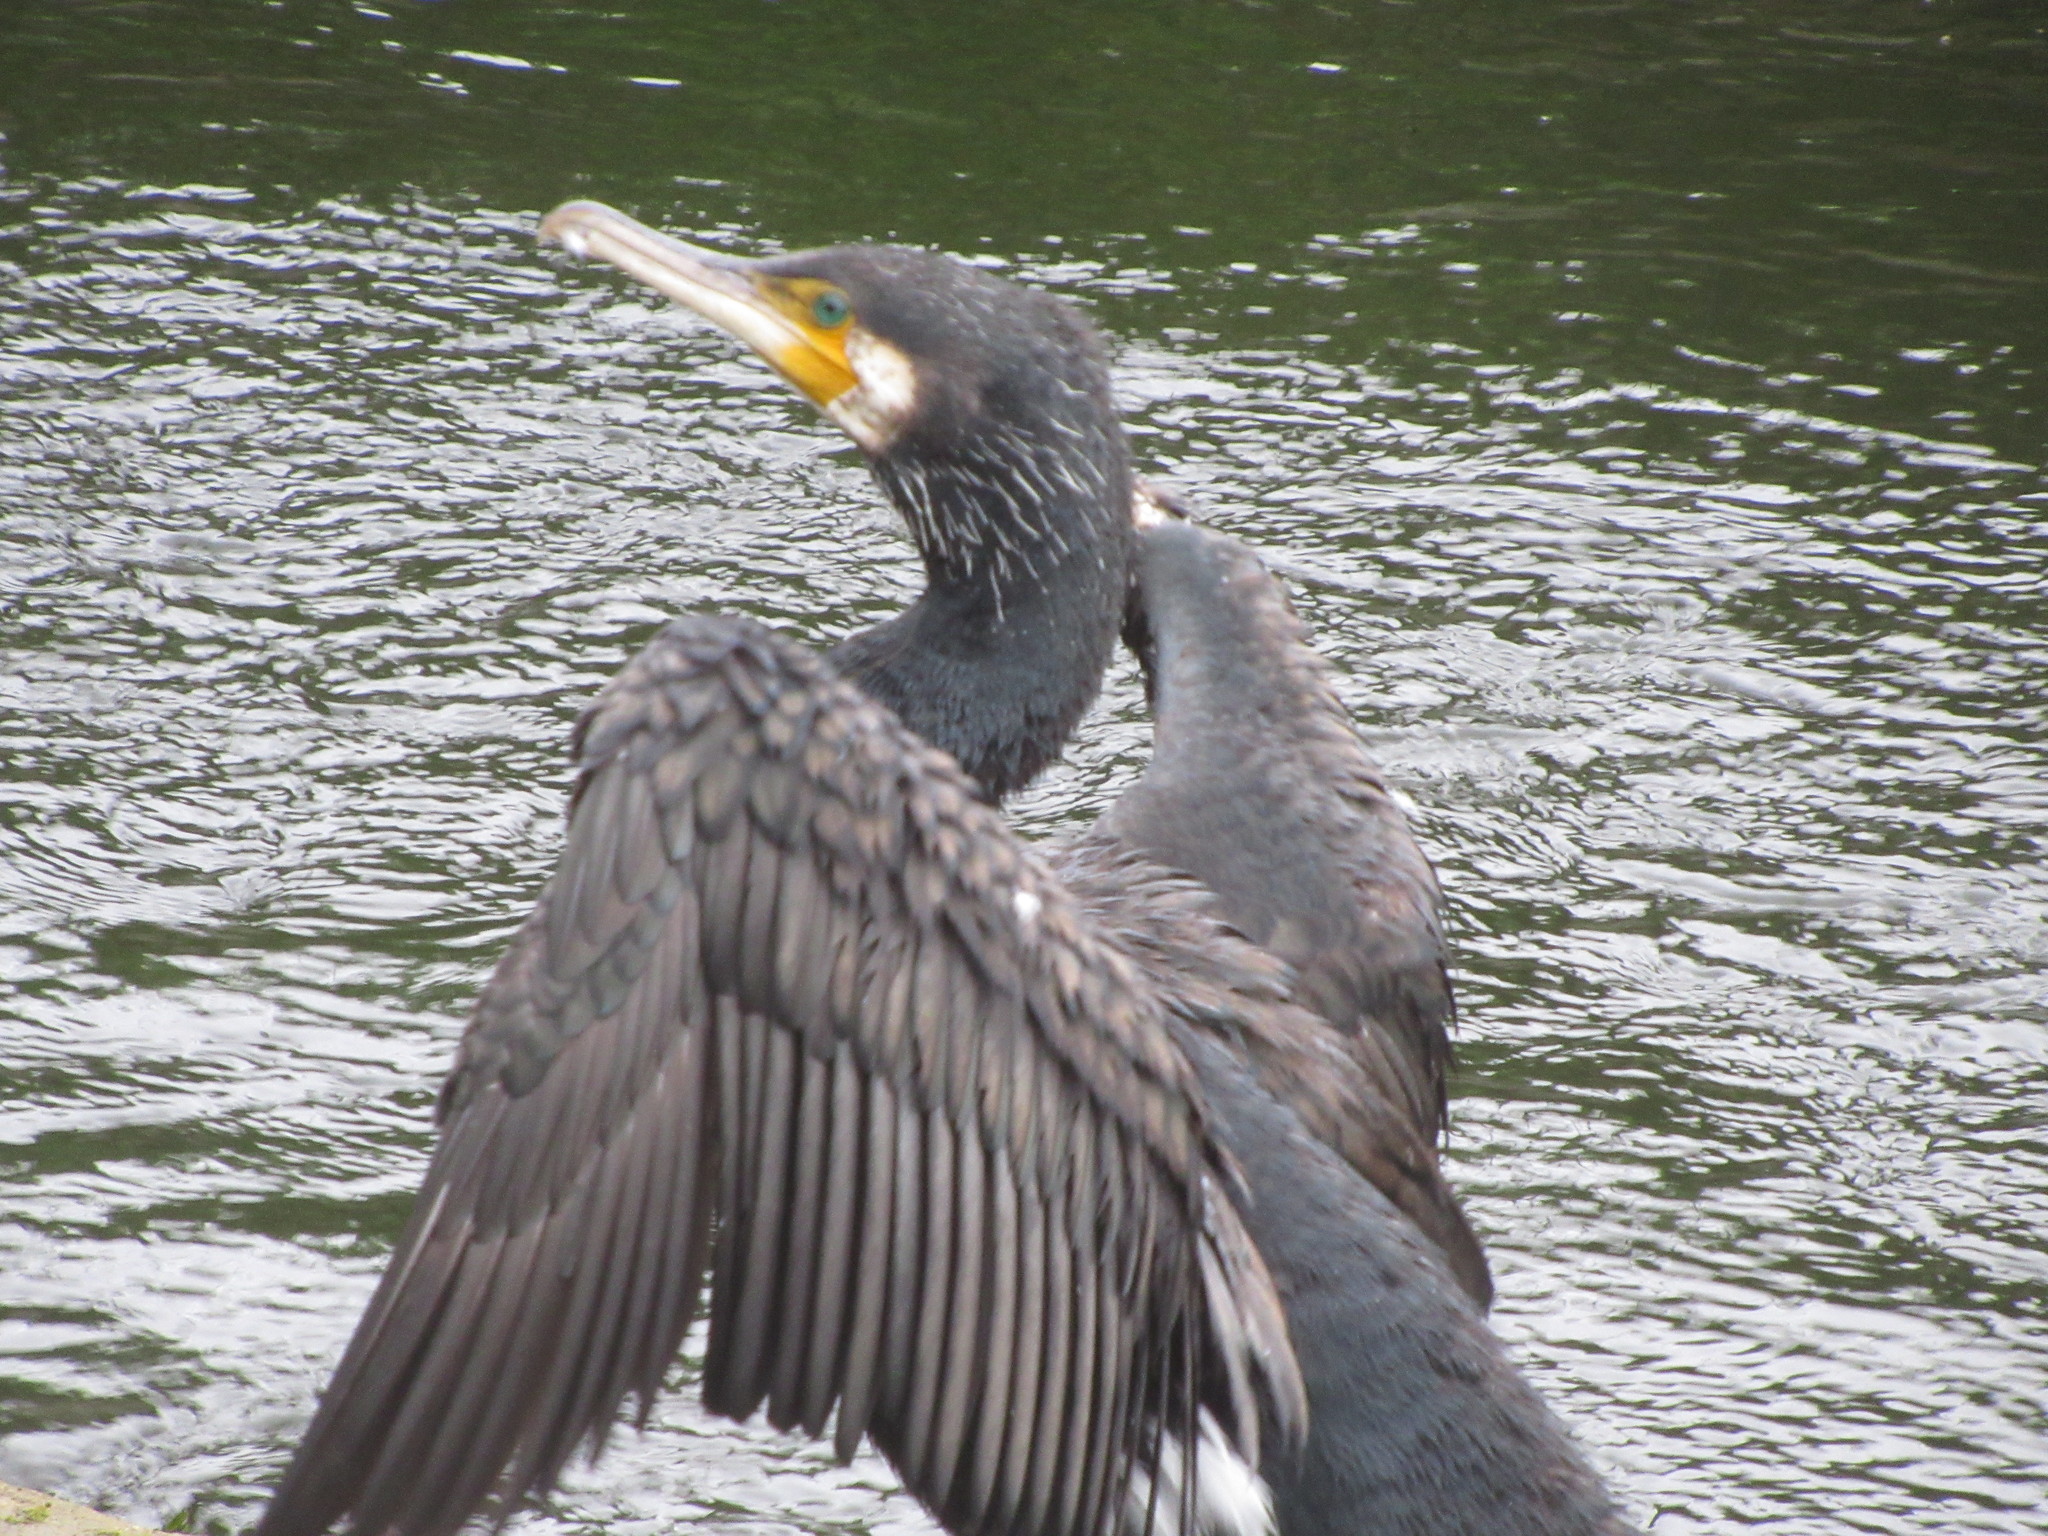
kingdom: Animalia
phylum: Chordata
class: Aves
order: Suliformes
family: Phalacrocoracidae
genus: Phalacrocorax
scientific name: Phalacrocorax carbo
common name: Great cormorant
